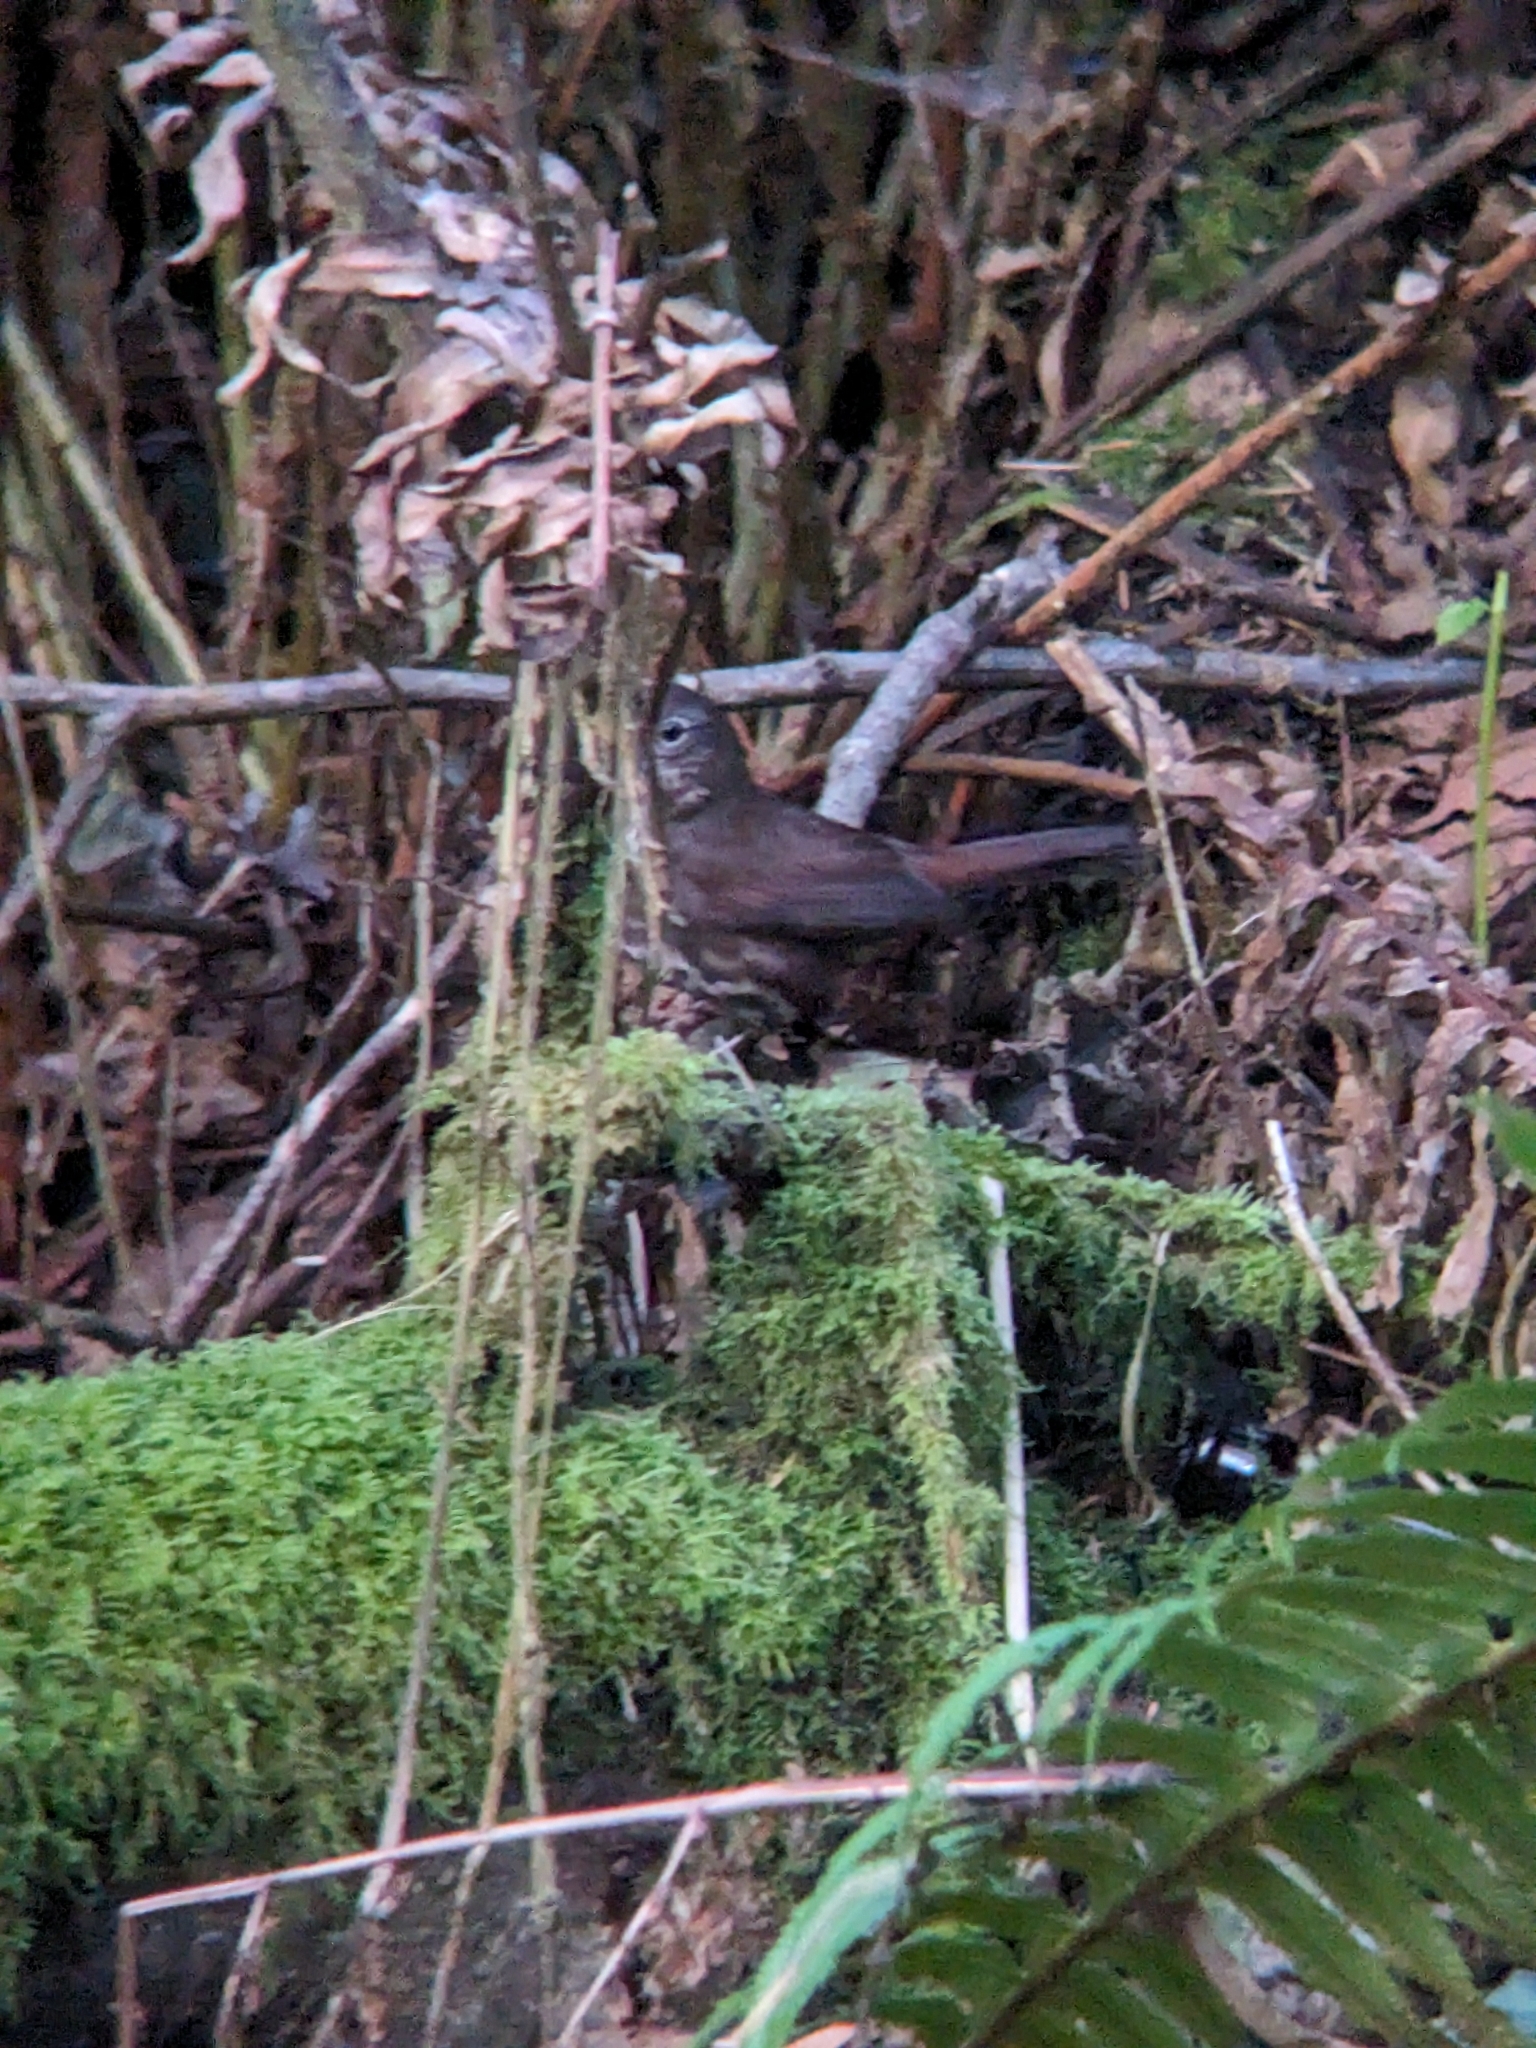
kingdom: Animalia
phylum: Chordata
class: Aves
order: Passeriformes
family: Passerellidae
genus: Passerella
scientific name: Passerella iliaca
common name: Fox sparrow
